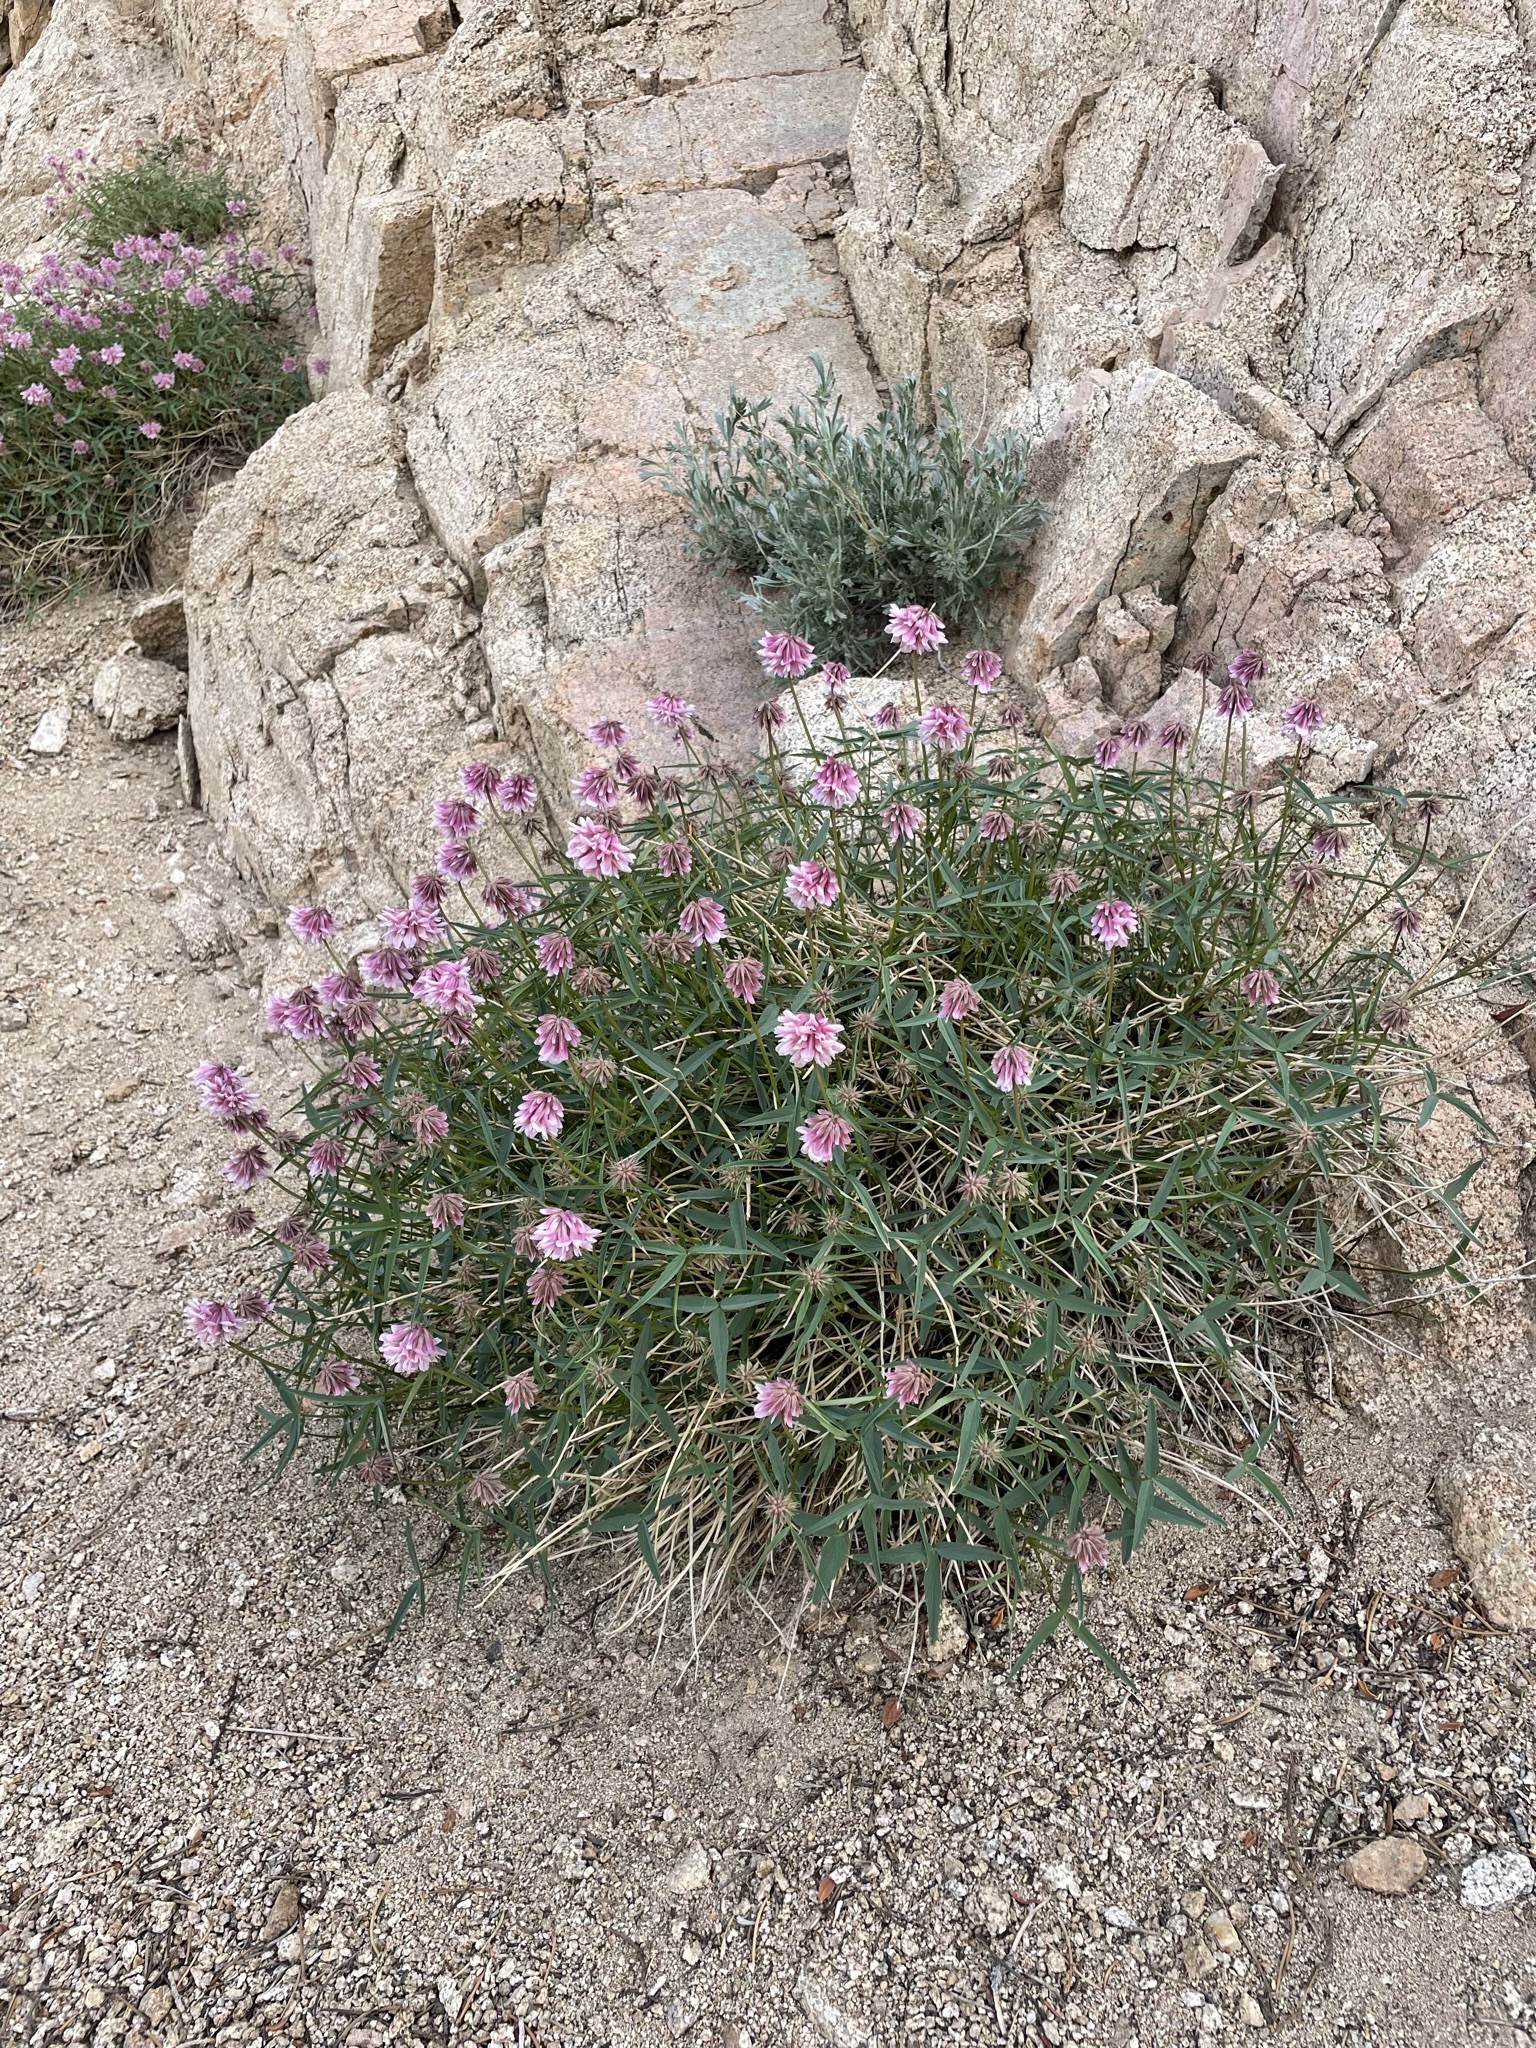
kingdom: Plantae
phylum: Tracheophyta
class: Magnoliopsida
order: Fabales
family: Fabaceae
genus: Trifolium
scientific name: Trifolium dedeckerae
